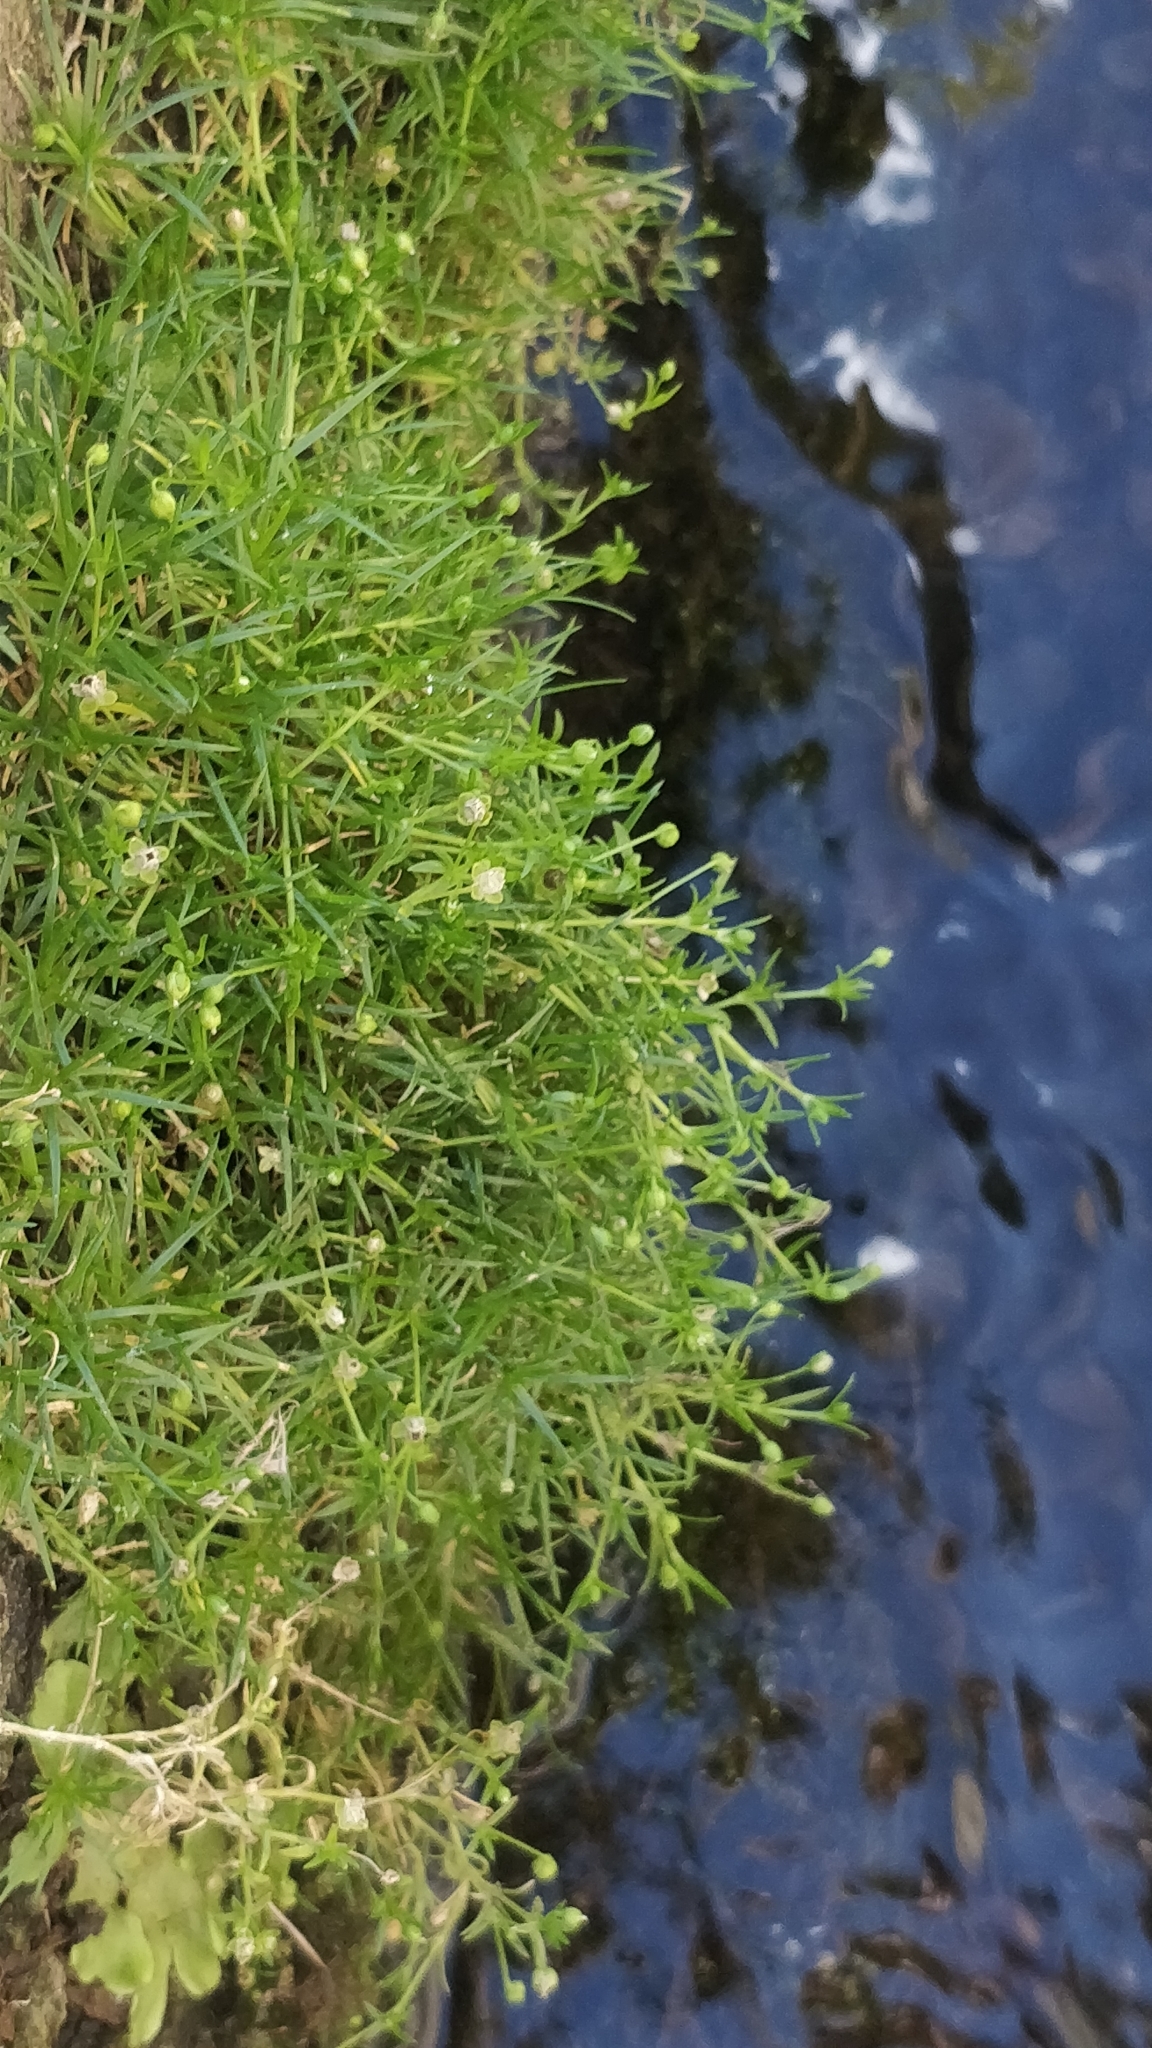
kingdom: Plantae
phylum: Tracheophyta
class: Magnoliopsida
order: Caryophyllales
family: Caryophyllaceae
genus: Sagina
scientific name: Sagina procumbens
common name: Procumbent pearlwort
